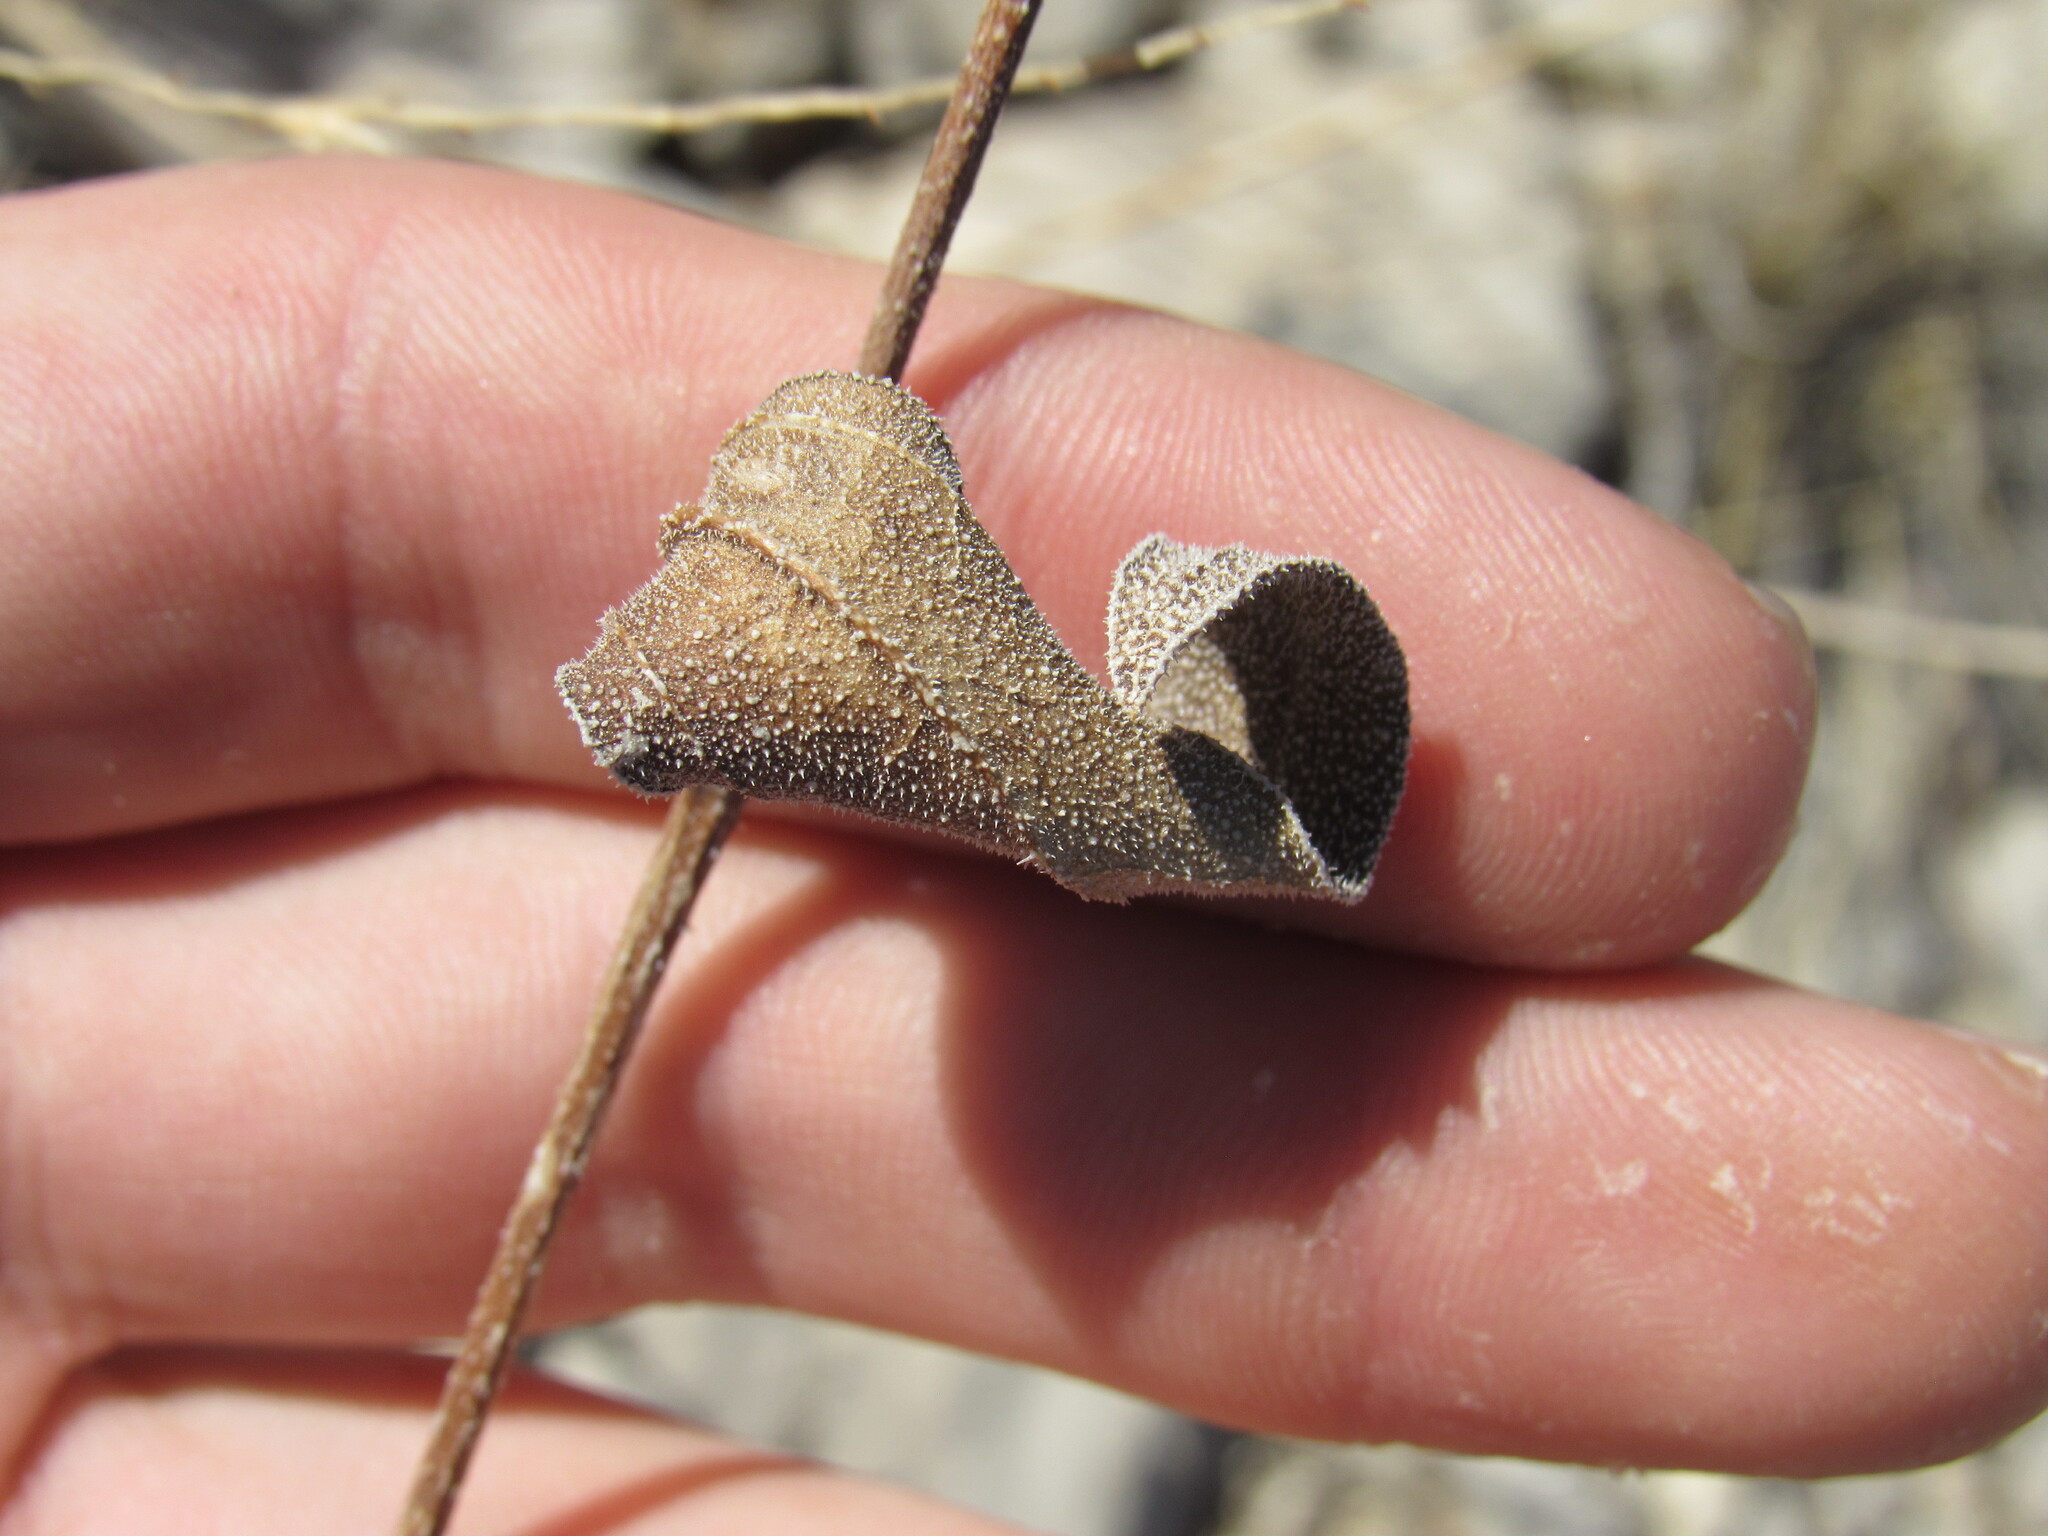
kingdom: Plantae
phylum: Tracheophyta
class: Magnoliopsida
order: Asterales
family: Asteraceae
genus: Helianthus
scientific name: Helianthus pumilus
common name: Dwarf sunflower
